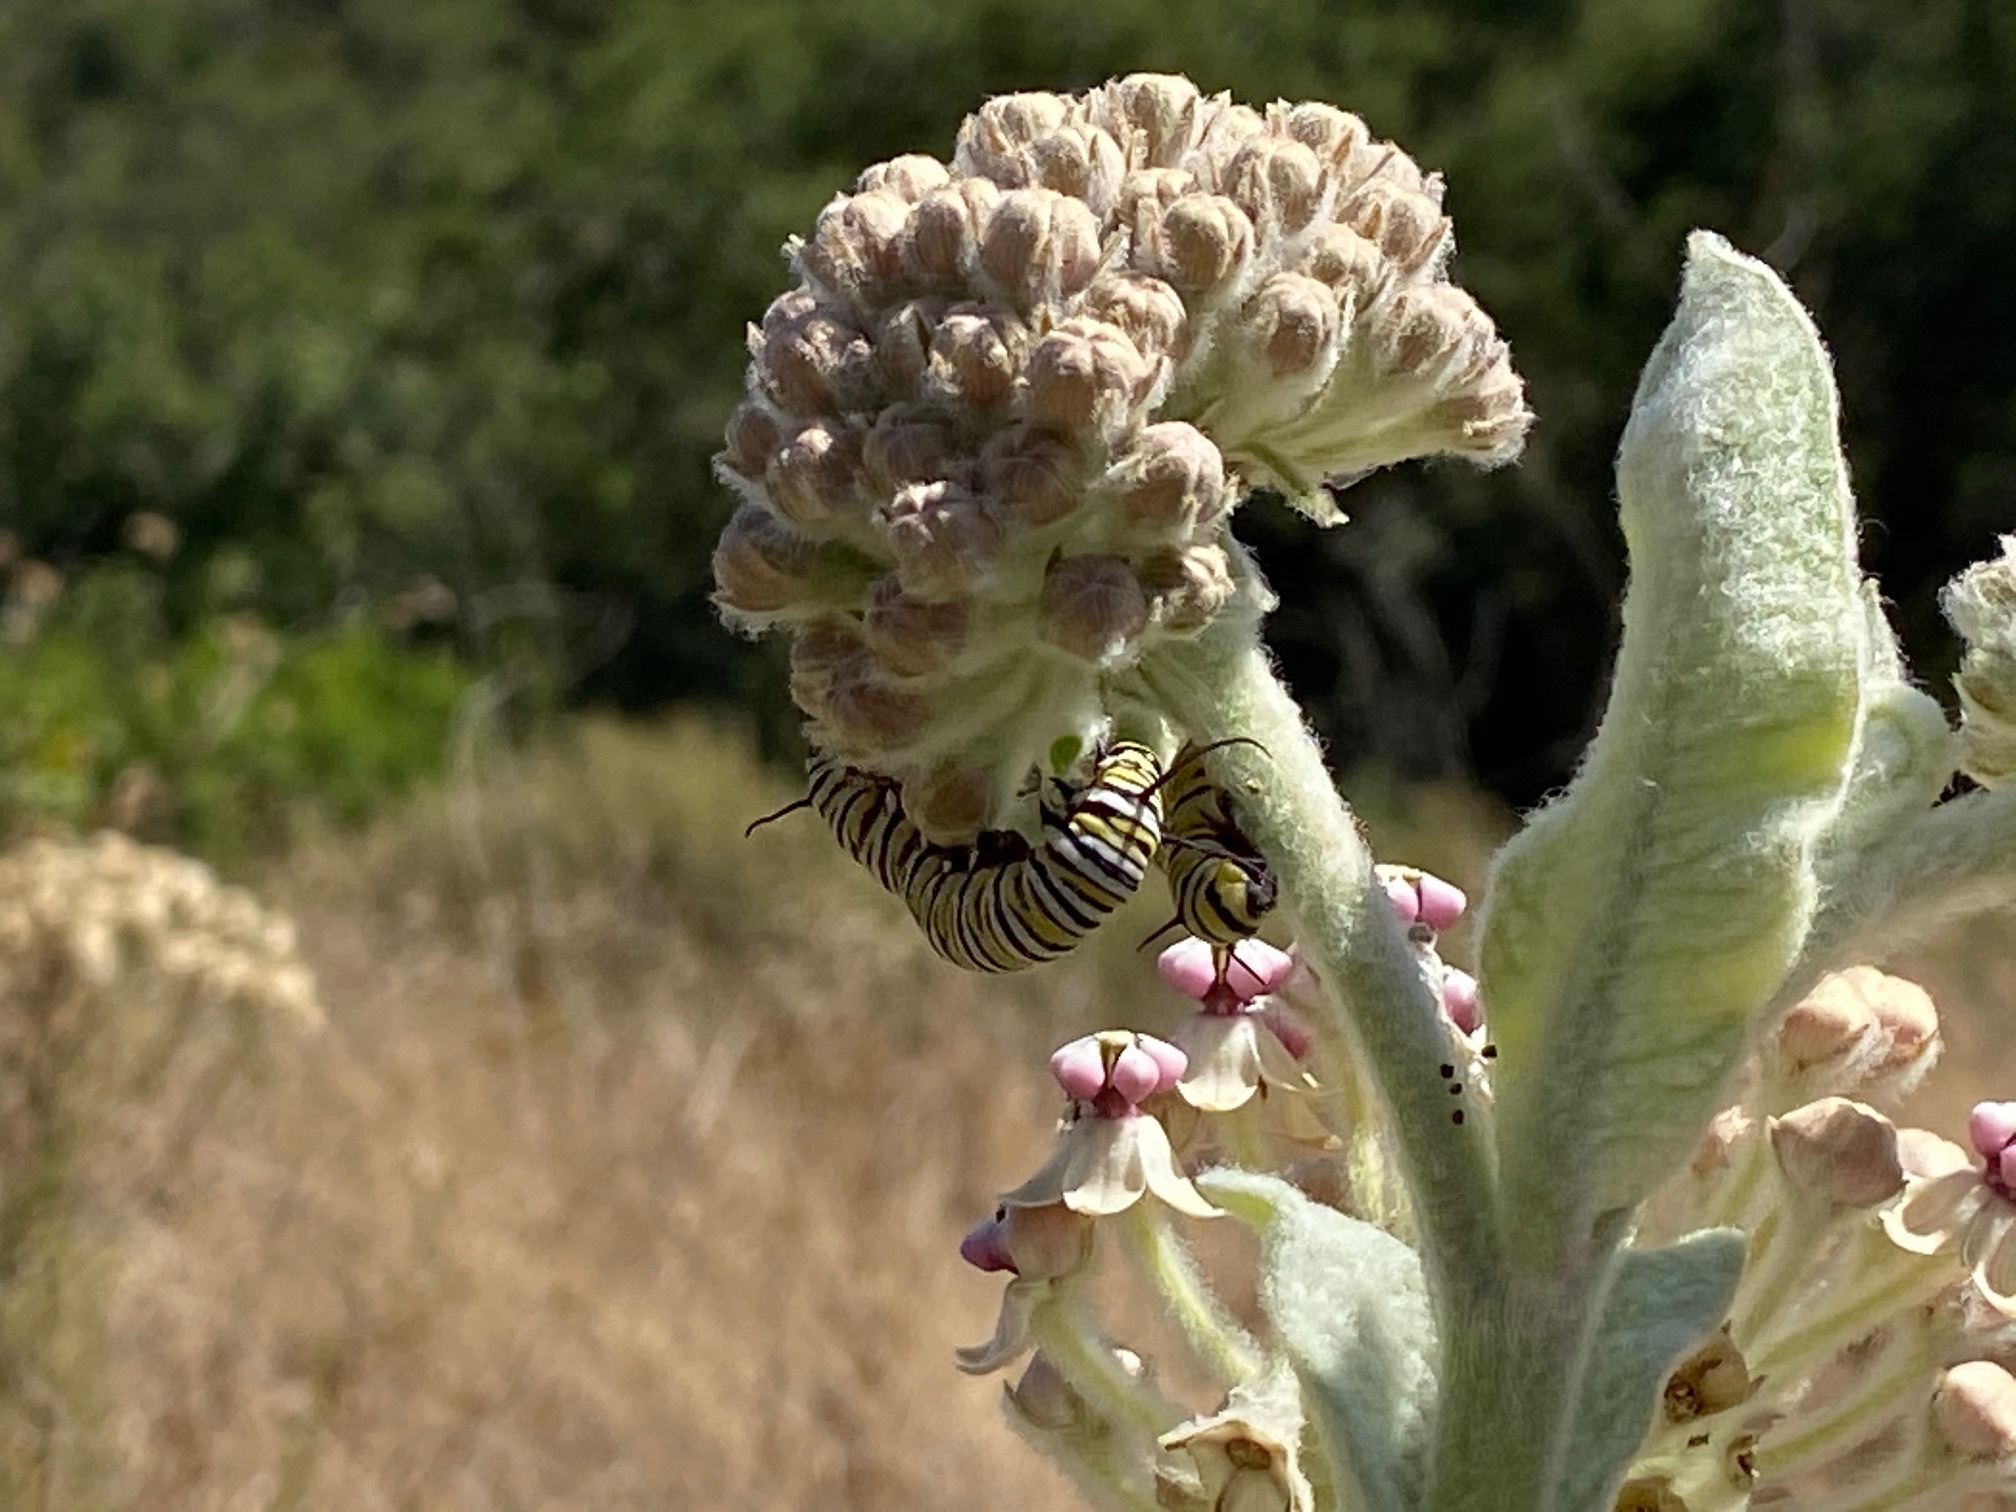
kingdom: Plantae
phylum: Tracheophyta
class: Magnoliopsida
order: Gentianales
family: Apocynaceae
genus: Asclepias
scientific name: Asclepias eriocarpa
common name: Indian milkweed
